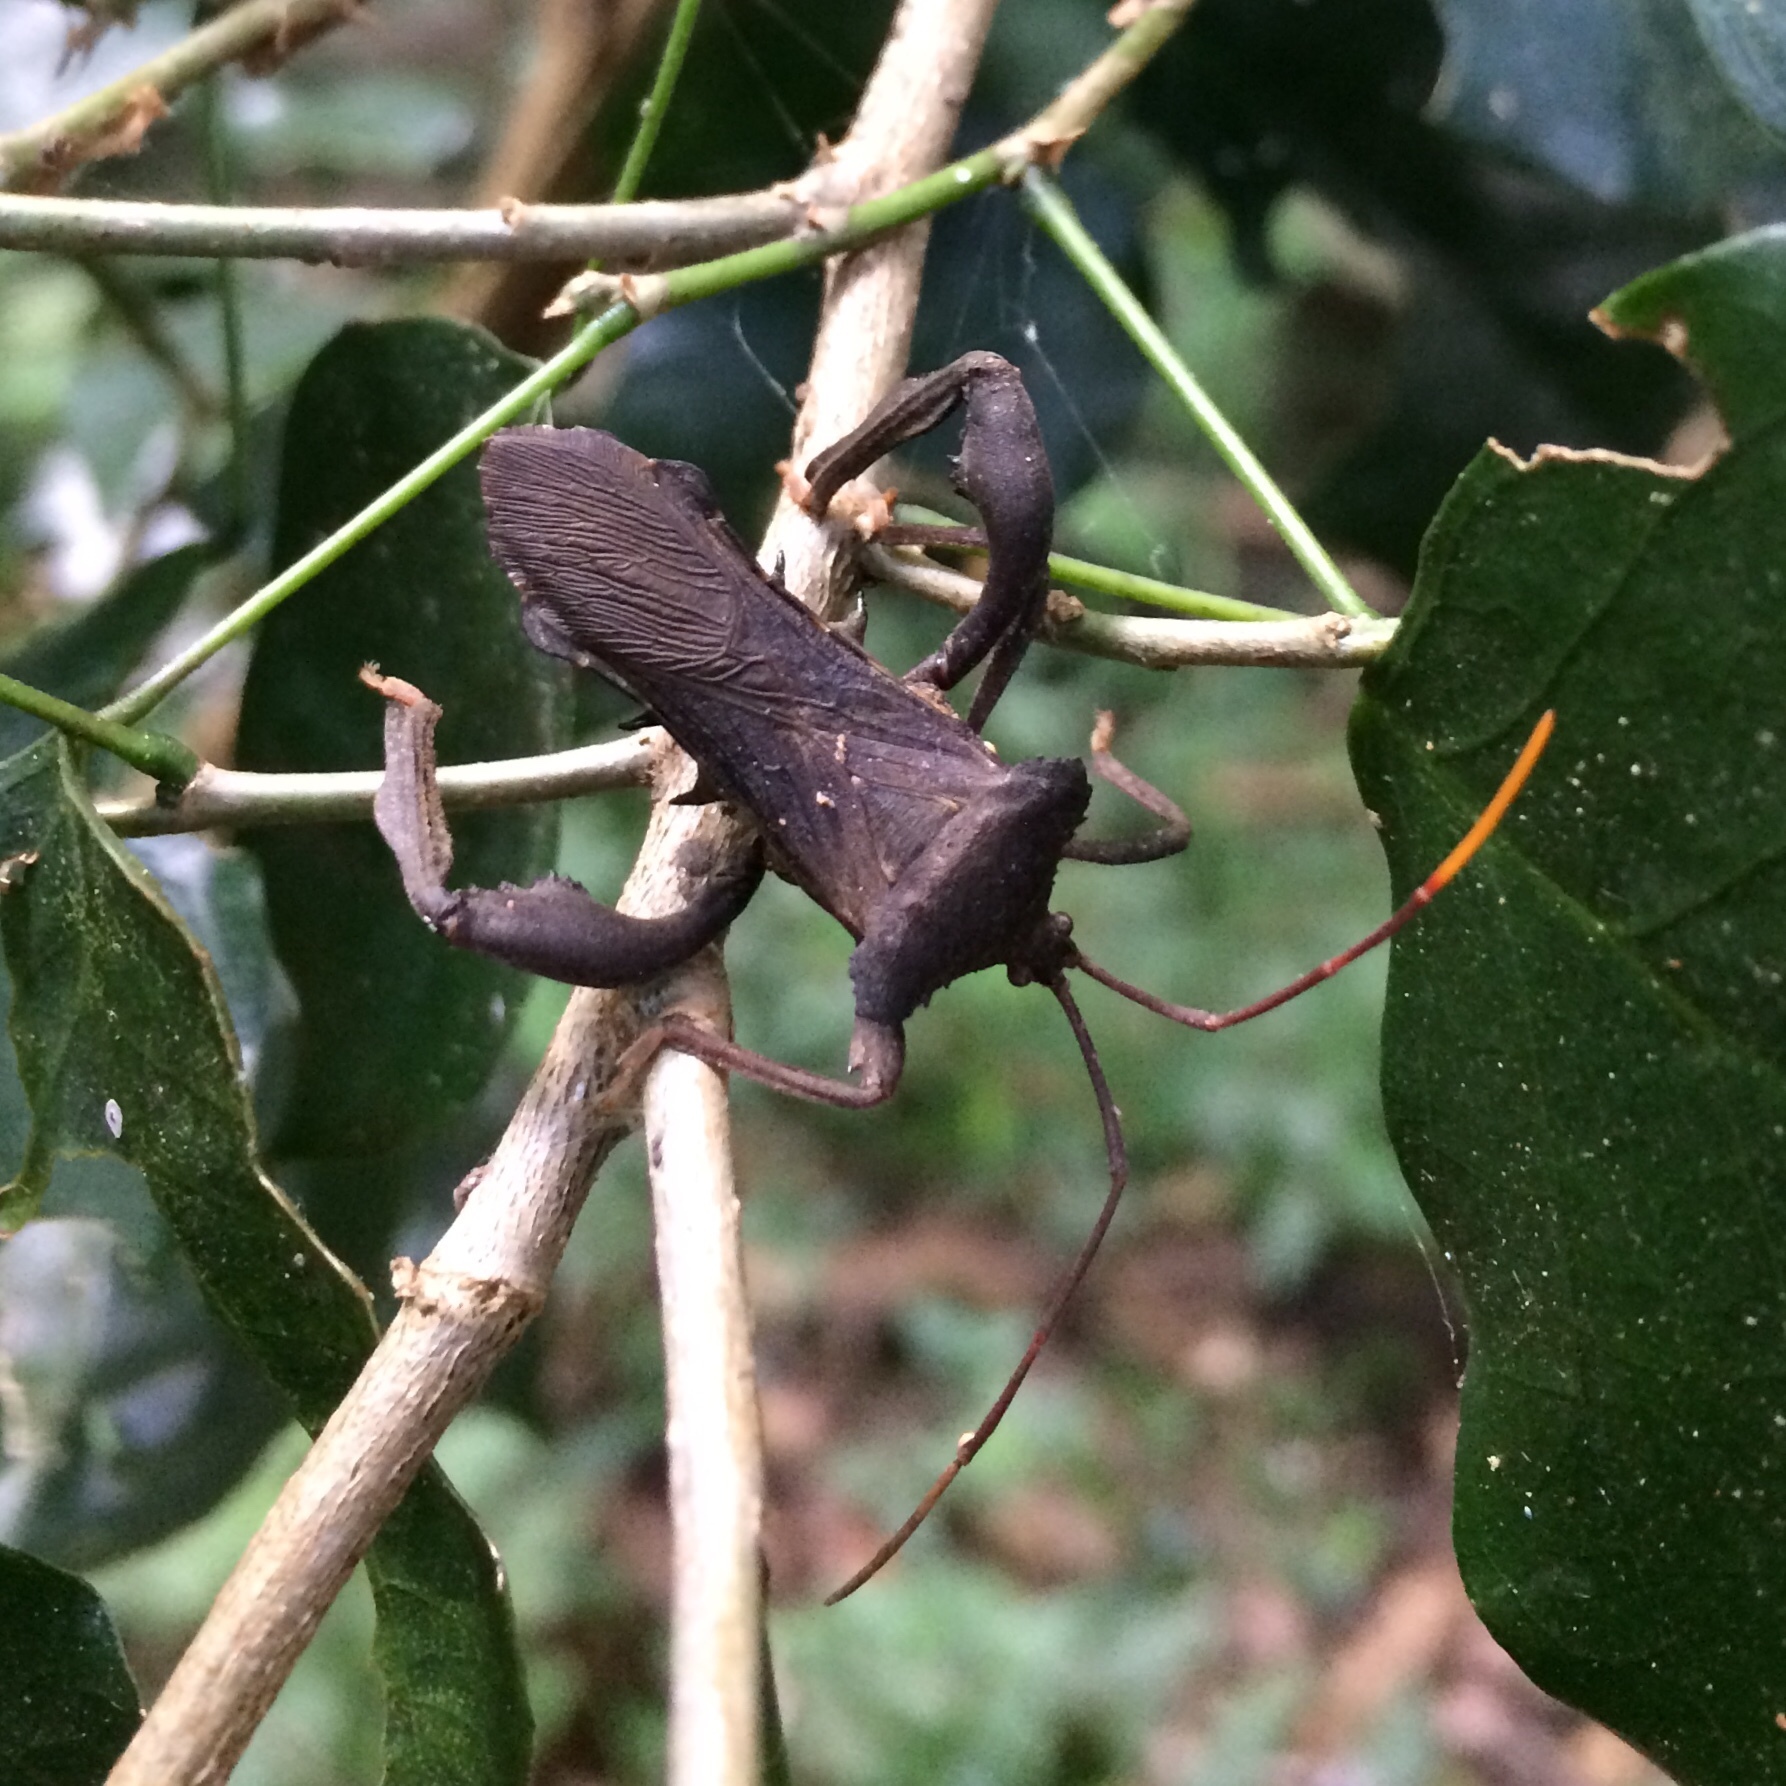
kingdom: Animalia
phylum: Arthropoda
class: Insecta
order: Hemiptera
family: Coreidae
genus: Plectropoda
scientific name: Plectropoda undata
